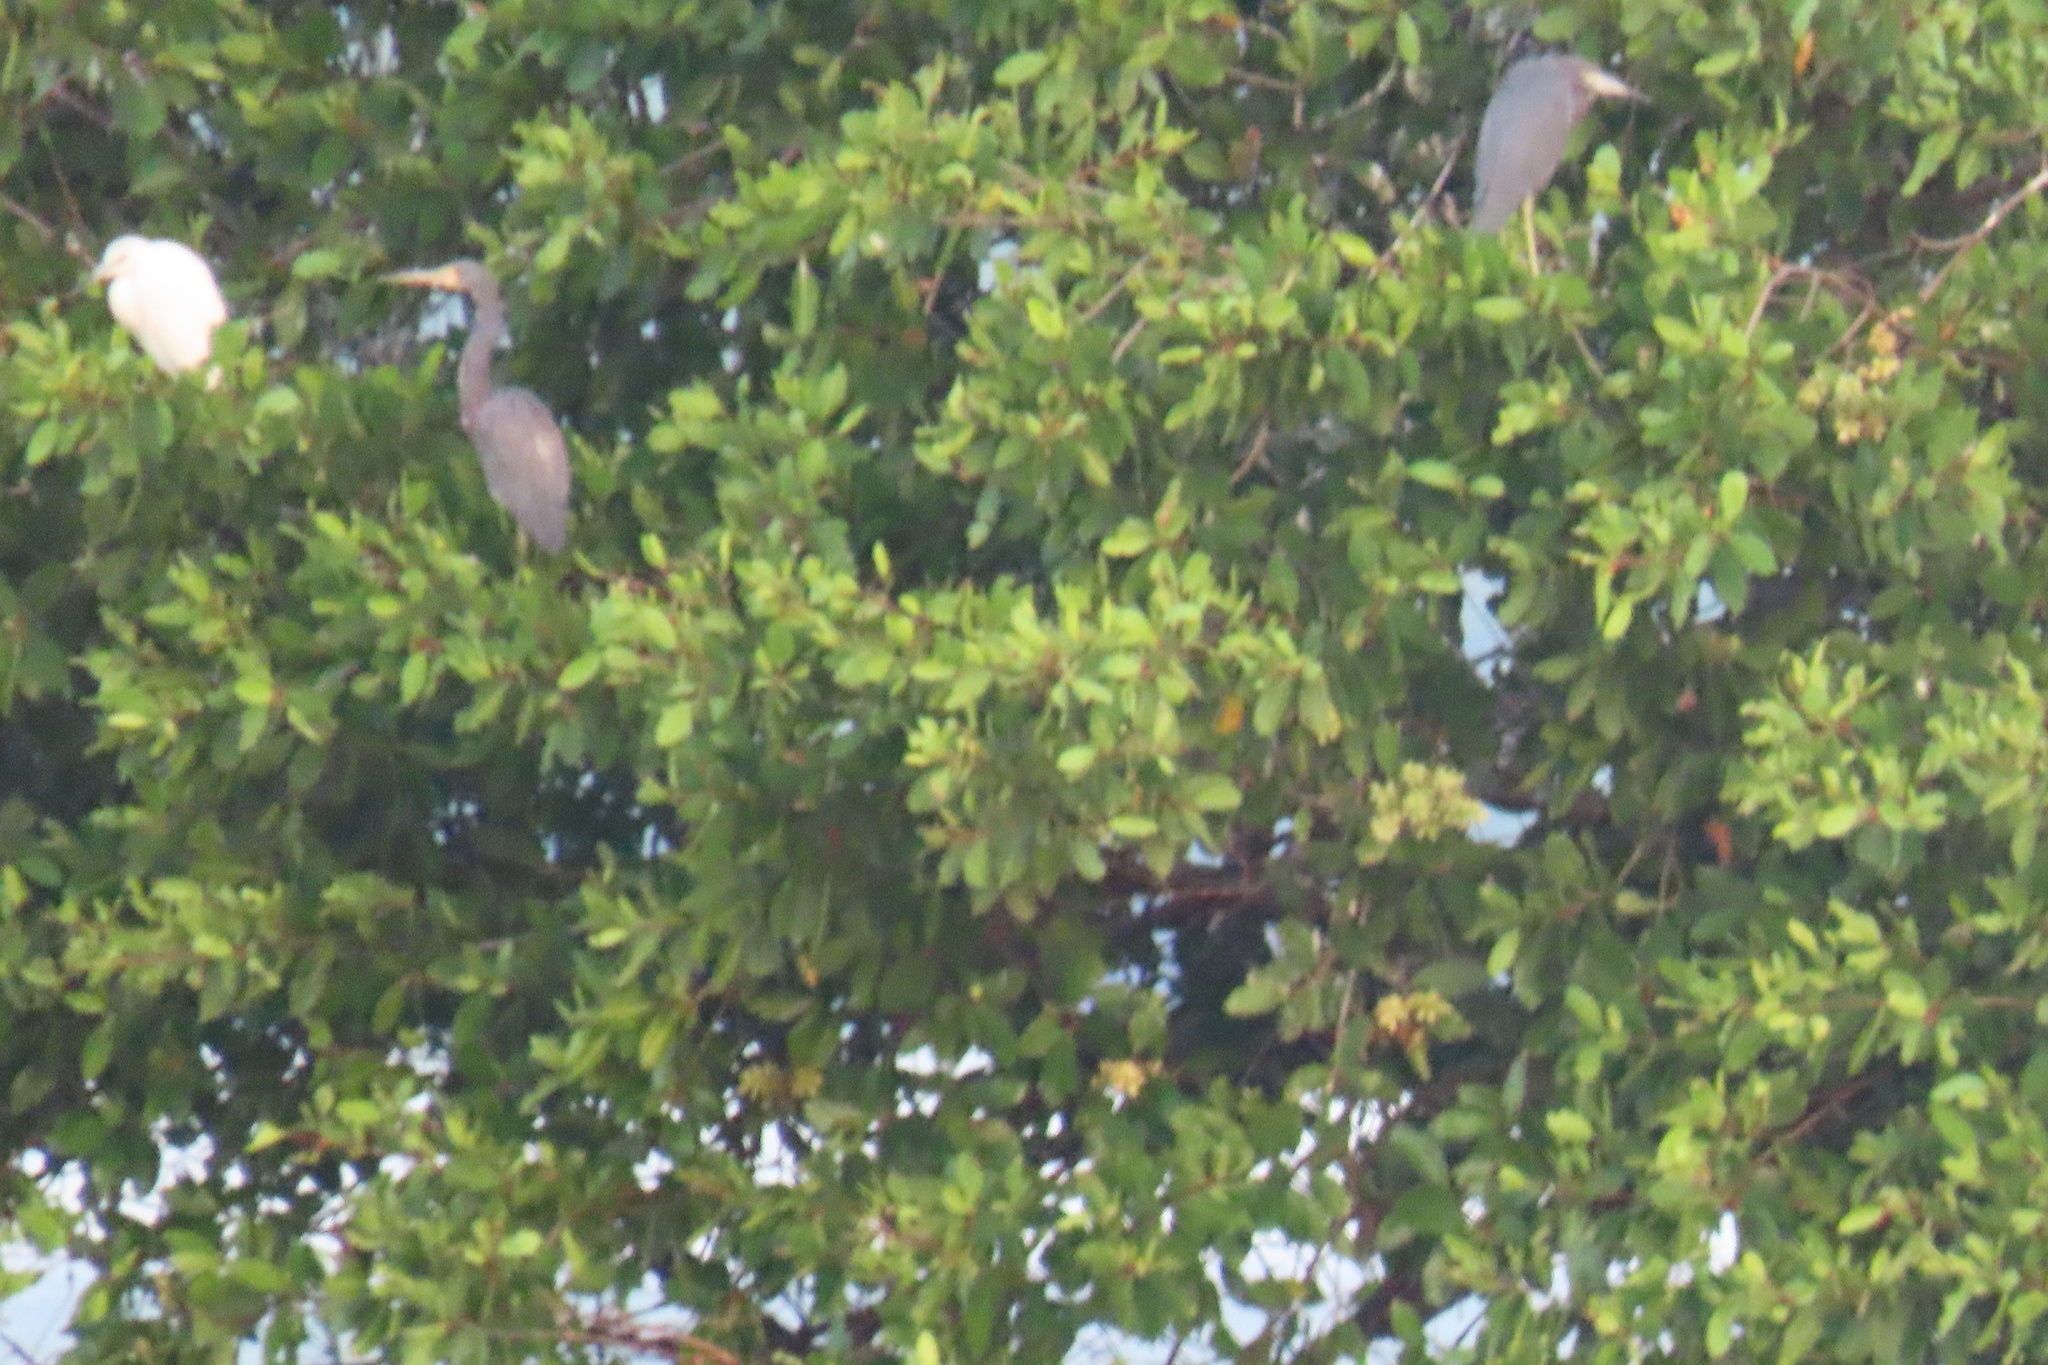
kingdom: Animalia
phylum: Chordata
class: Aves
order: Pelecaniformes
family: Ardeidae
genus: Egretta
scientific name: Egretta tricolor
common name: Tricolored heron
